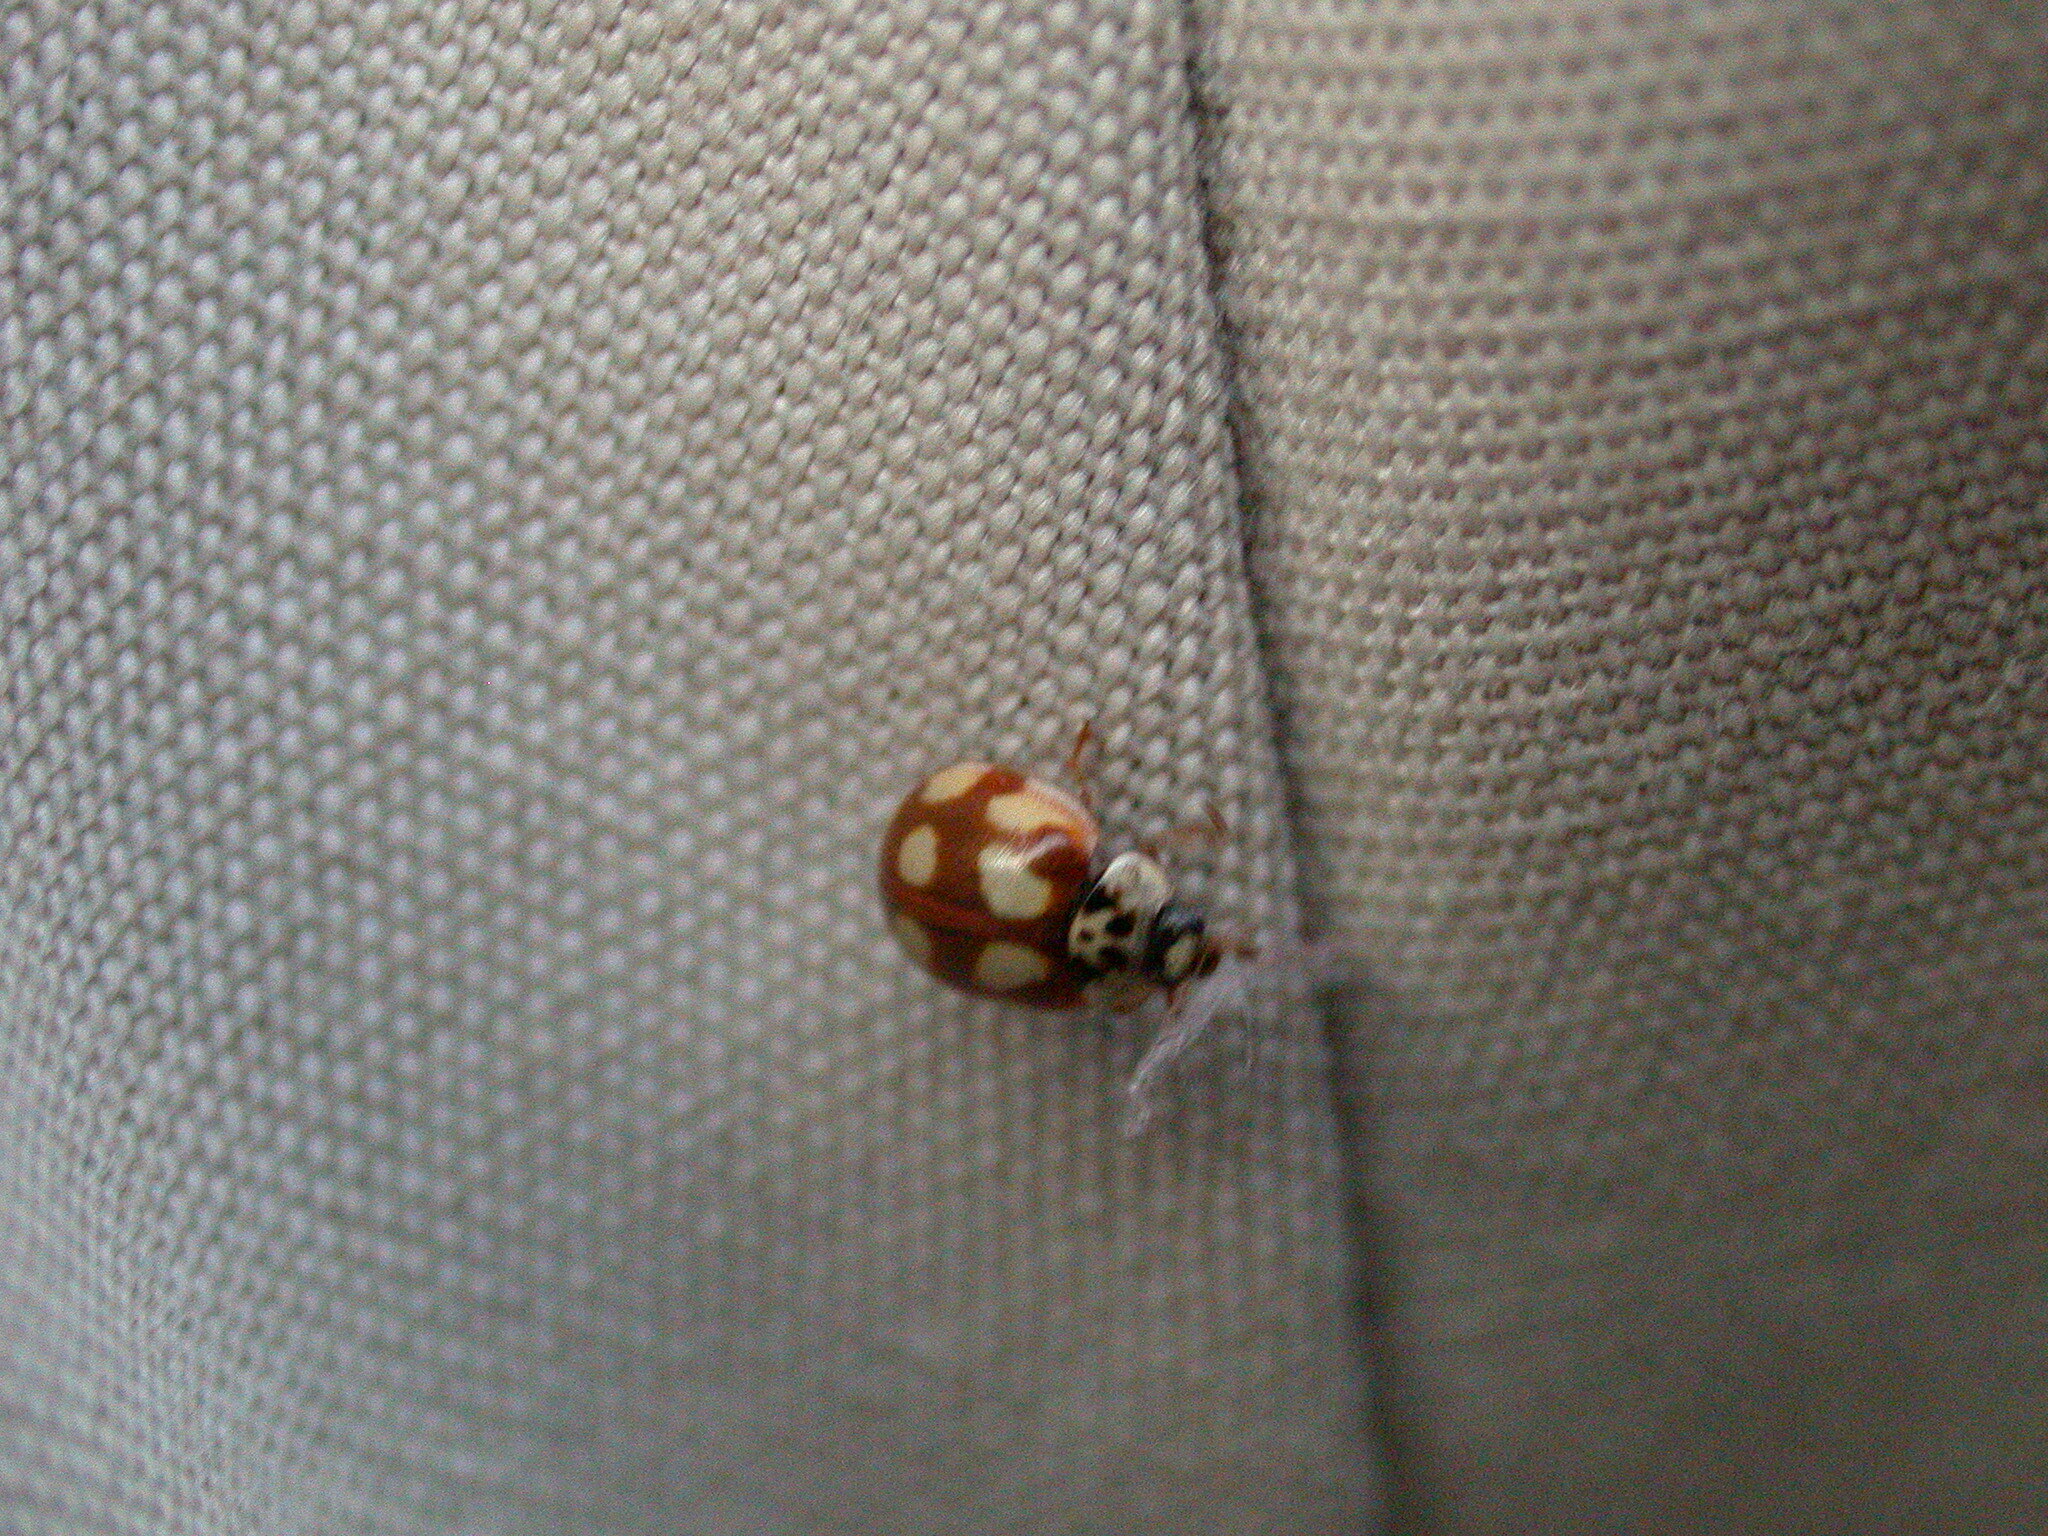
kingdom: Animalia
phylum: Arthropoda
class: Insecta
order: Coleoptera
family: Coccinellidae
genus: Adalia
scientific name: Adalia decempunctata
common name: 10-spot ladybird
